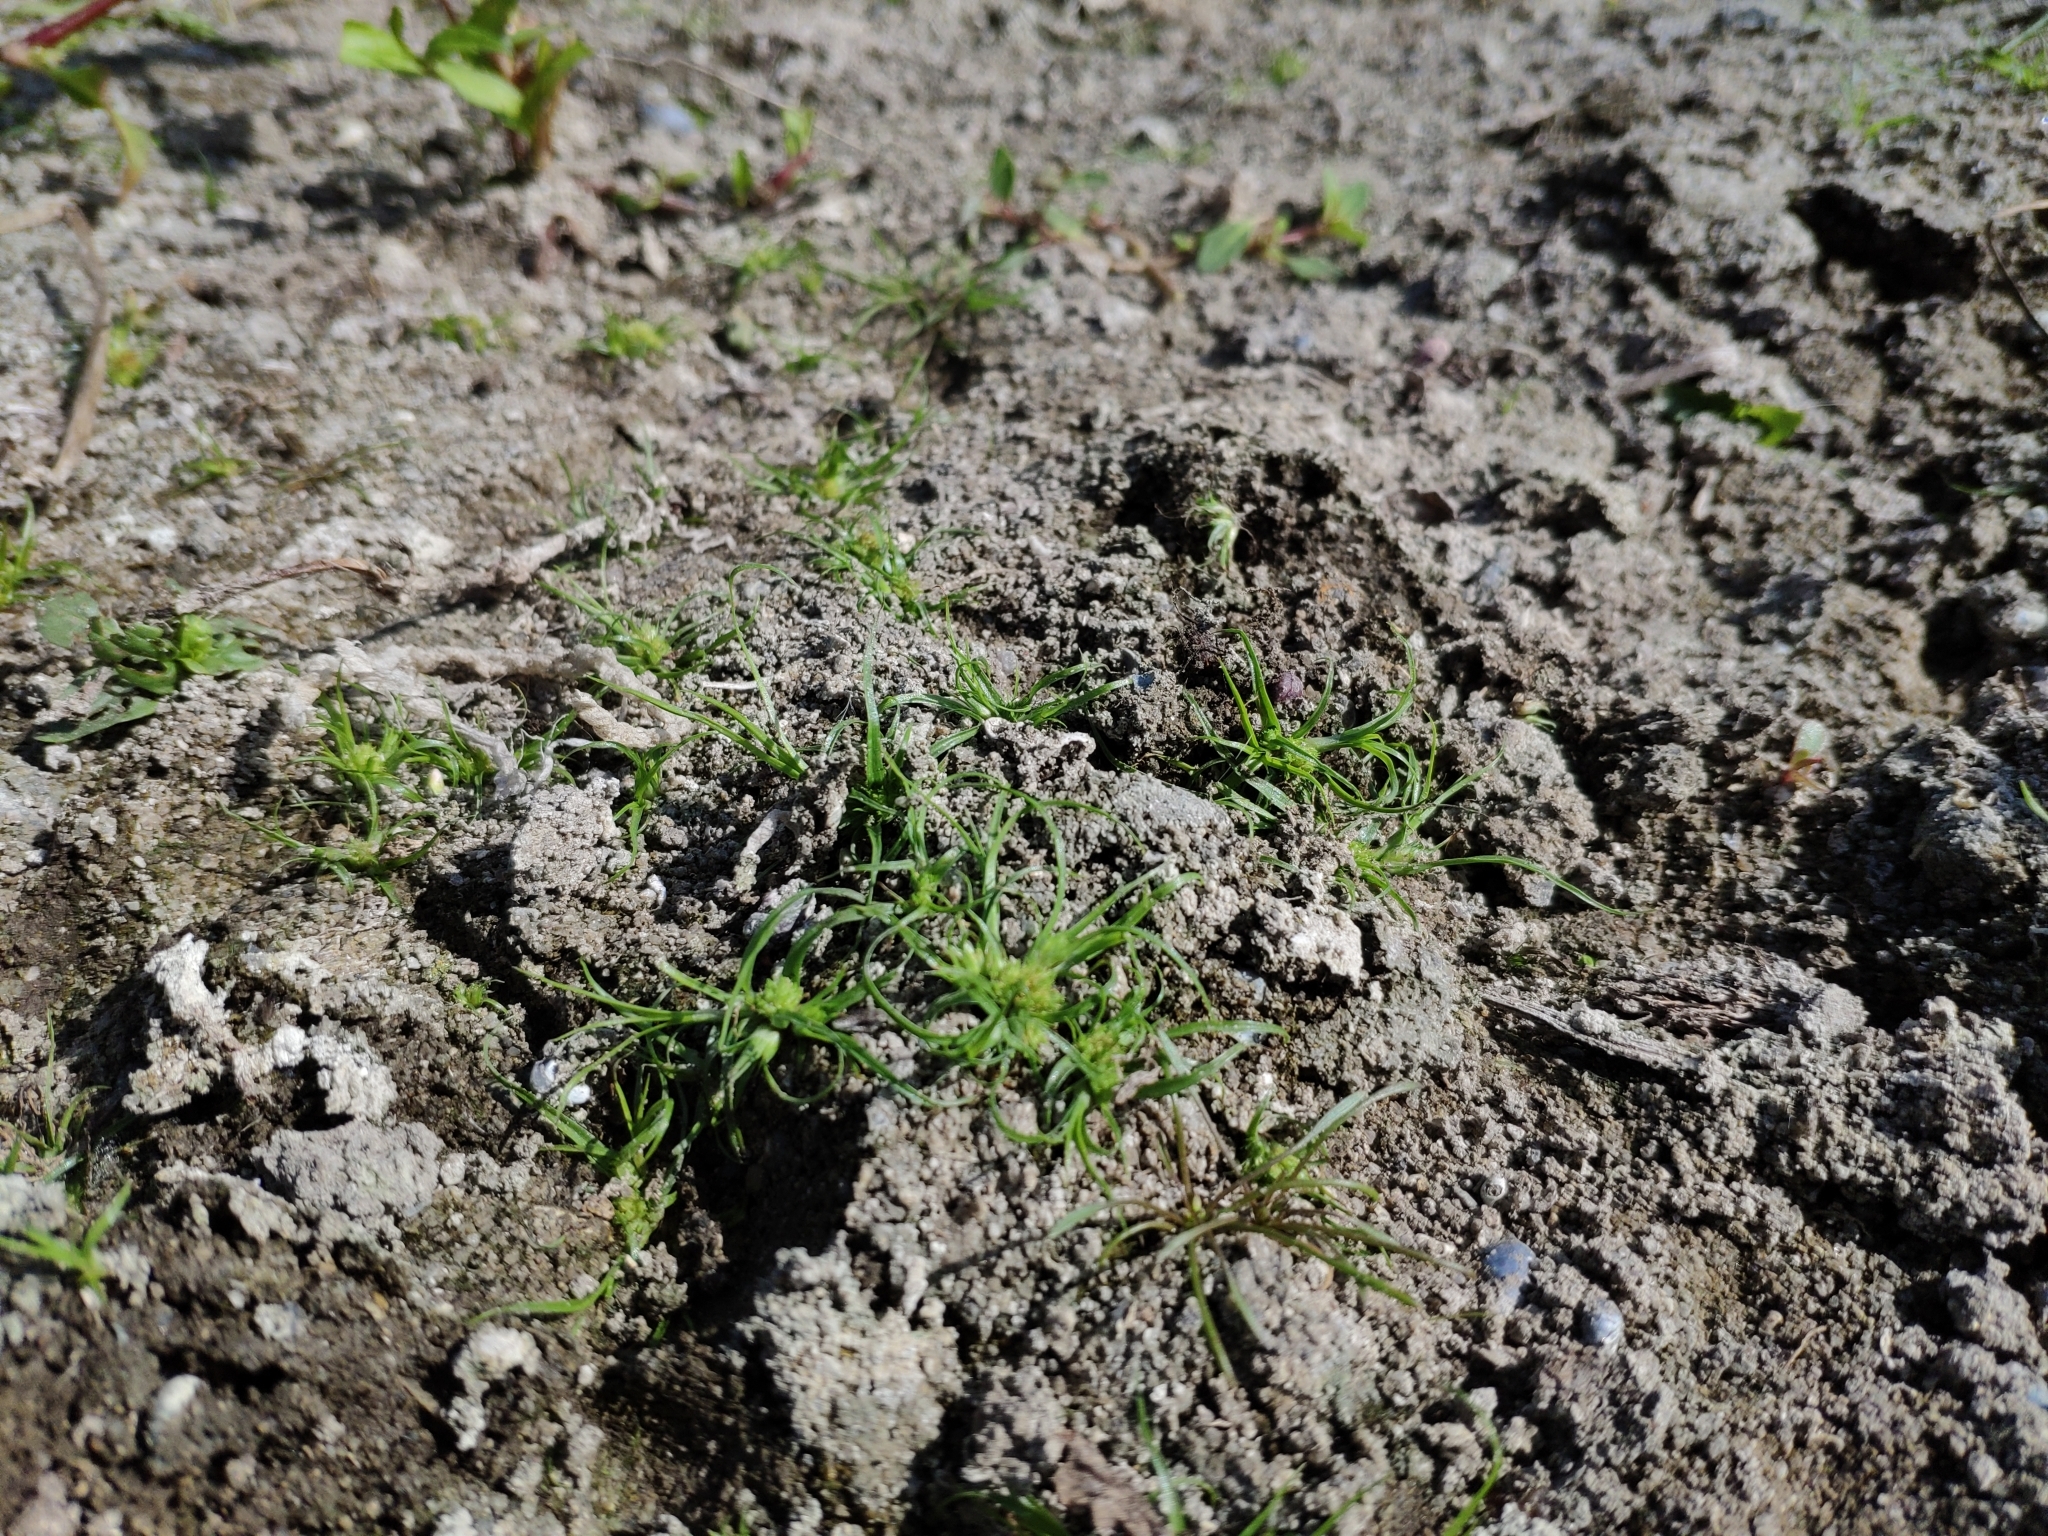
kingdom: Plantae
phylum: Tracheophyta
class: Liliopsida
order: Poales
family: Cyperaceae
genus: Cyperus
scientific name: Cyperus michelianus
